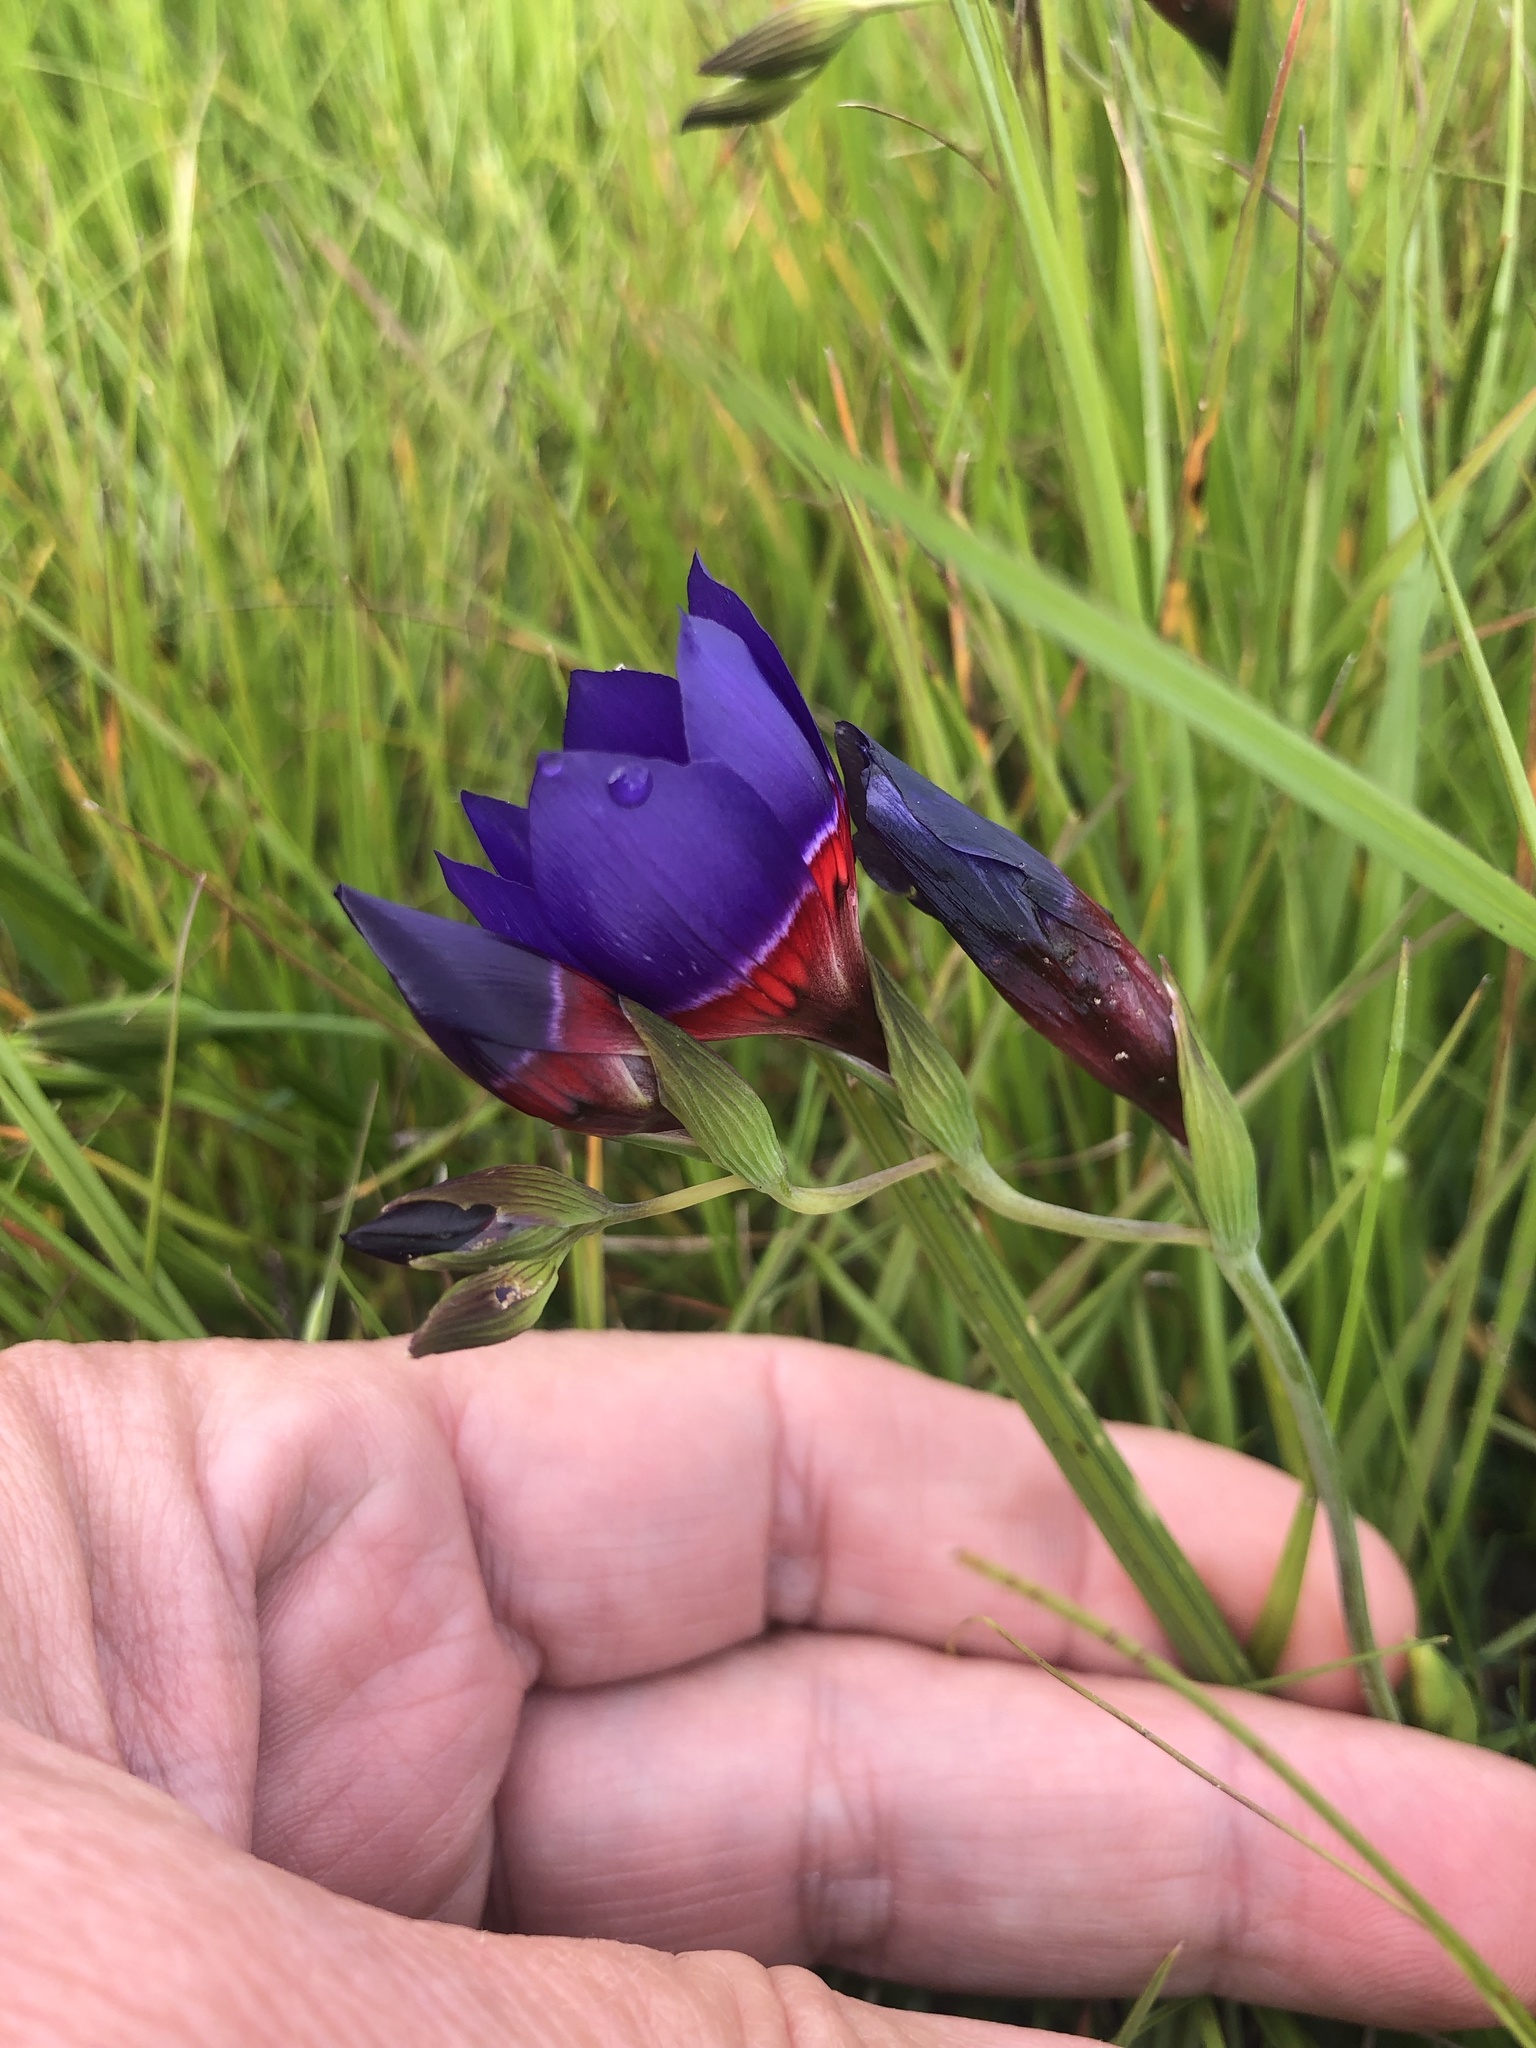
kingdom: Plantae
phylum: Tracheophyta
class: Liliopsida
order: Asparagales
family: Iridaceae
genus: Geissorhiza
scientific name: Geissorhiza radians
